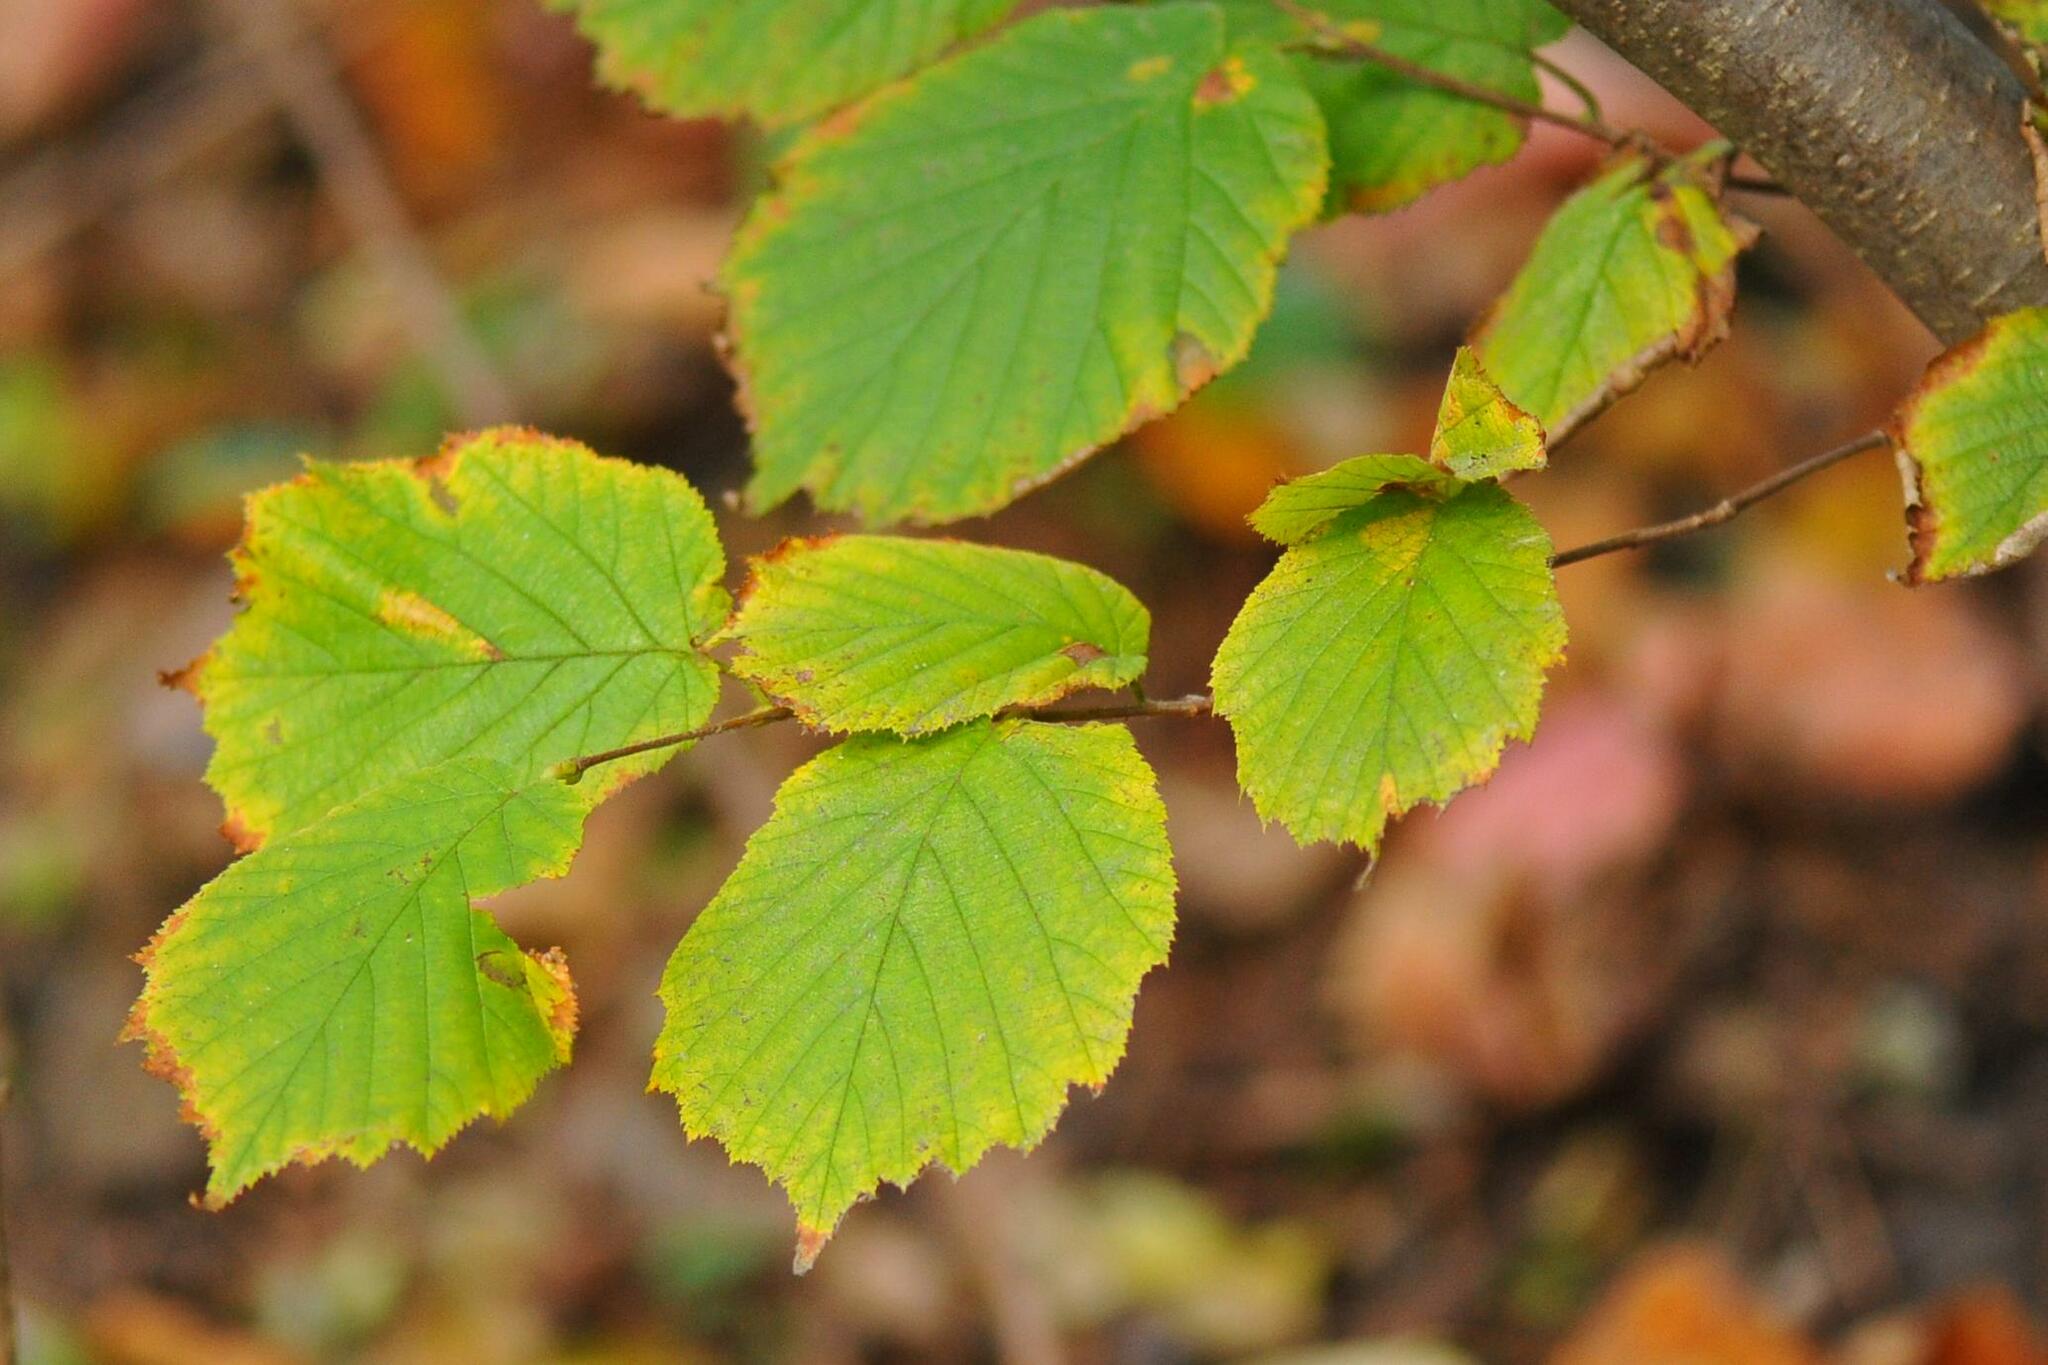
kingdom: Plantae
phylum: Tracheophyta
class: Magnoliopsida
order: Fagales
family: Betulaceae
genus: Corylus
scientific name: Corylus avellana
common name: European hazel
